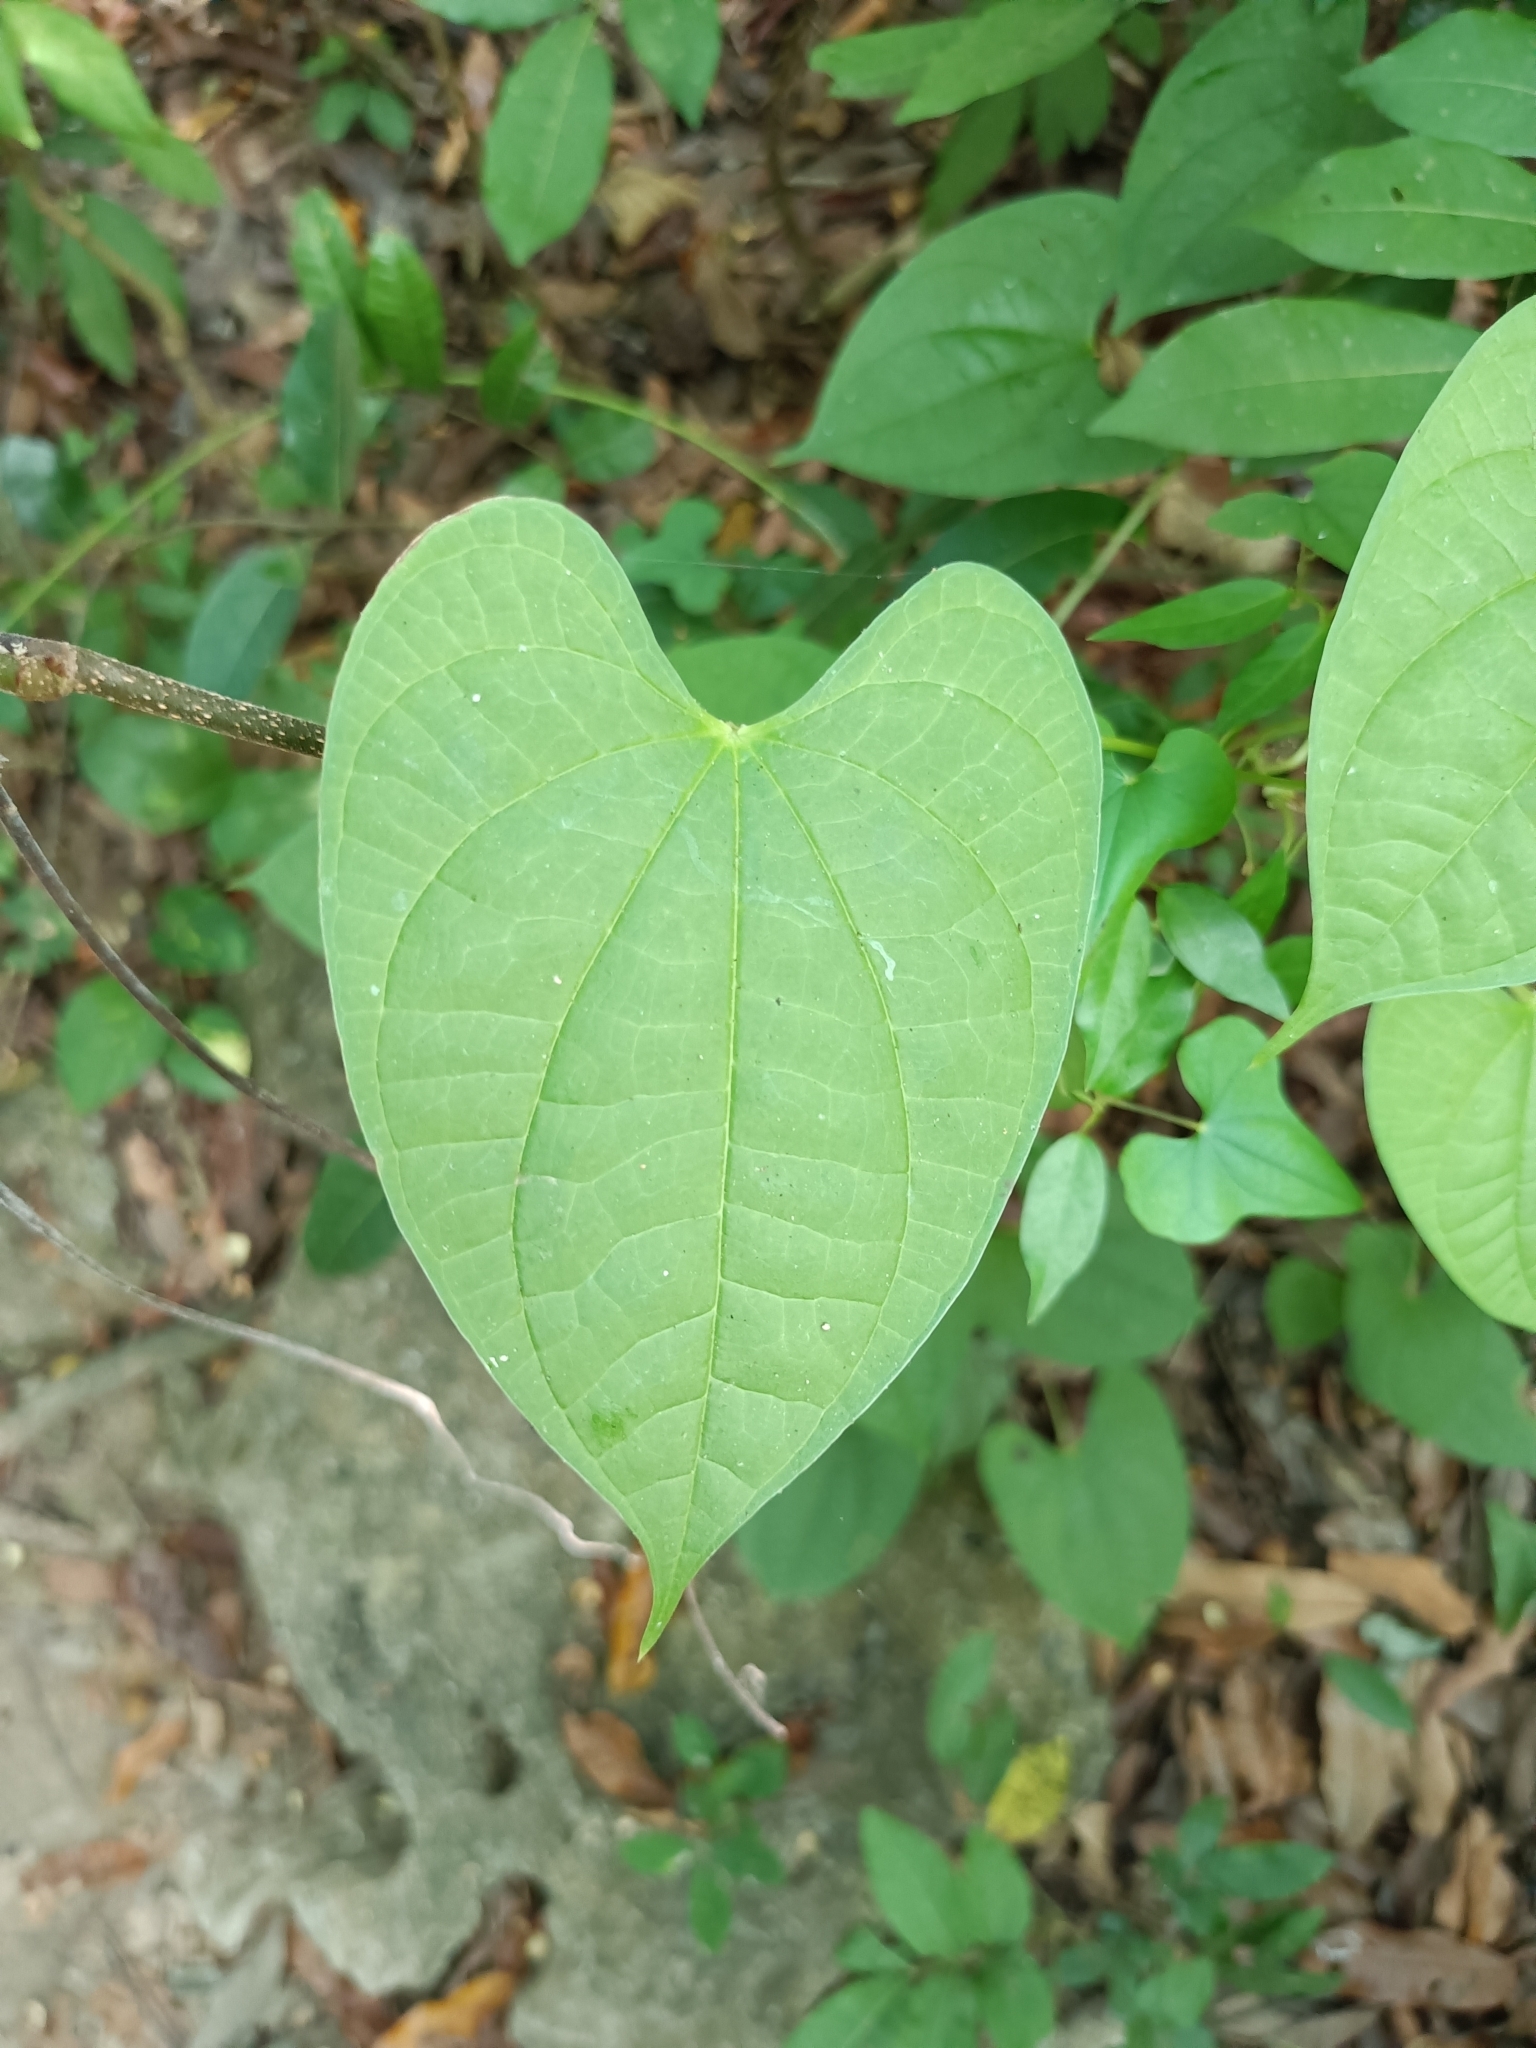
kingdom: Plantae
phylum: Tracheophyta
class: Liliopsida
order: Dioscoreales
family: Dioscoreaceae
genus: Dioscorea
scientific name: Dioscorea bulbifera
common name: Air yam
